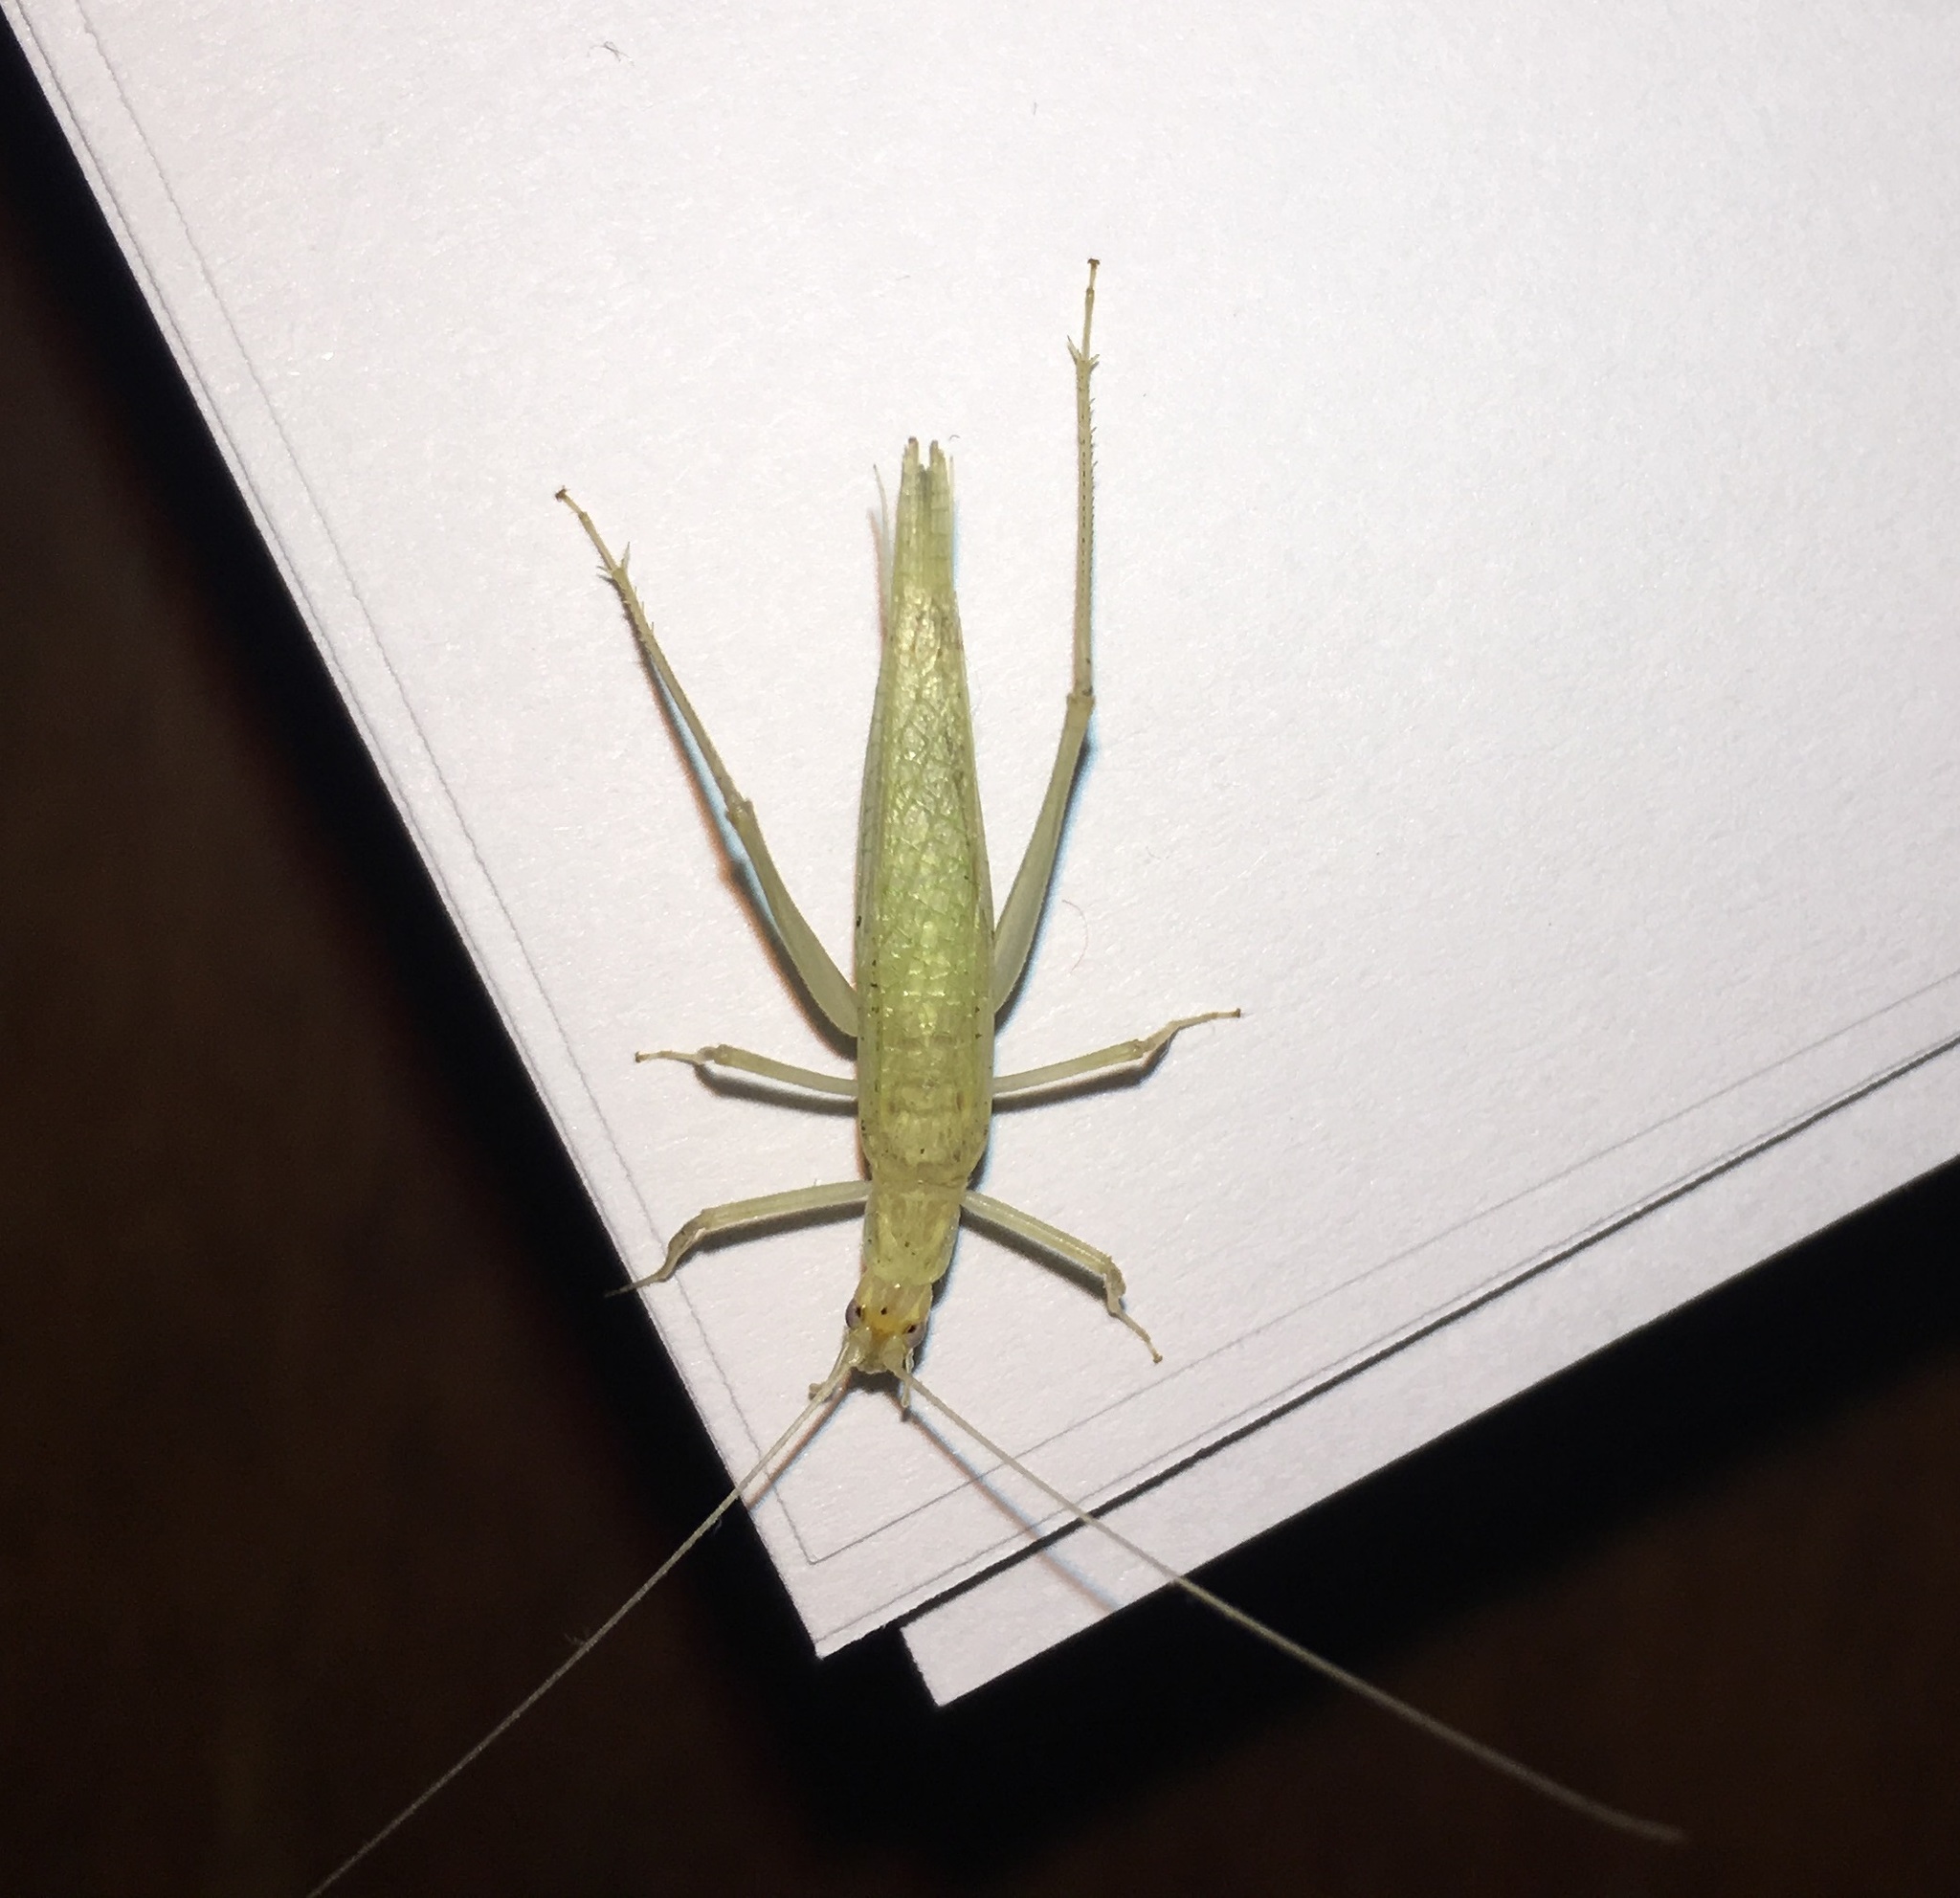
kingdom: Animalia
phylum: Arthropoda
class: Insecta
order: Orthoptera
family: Gryllidae
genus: Oecanthus
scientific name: Oecanthus exclamationis
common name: Davis's tree cricket
